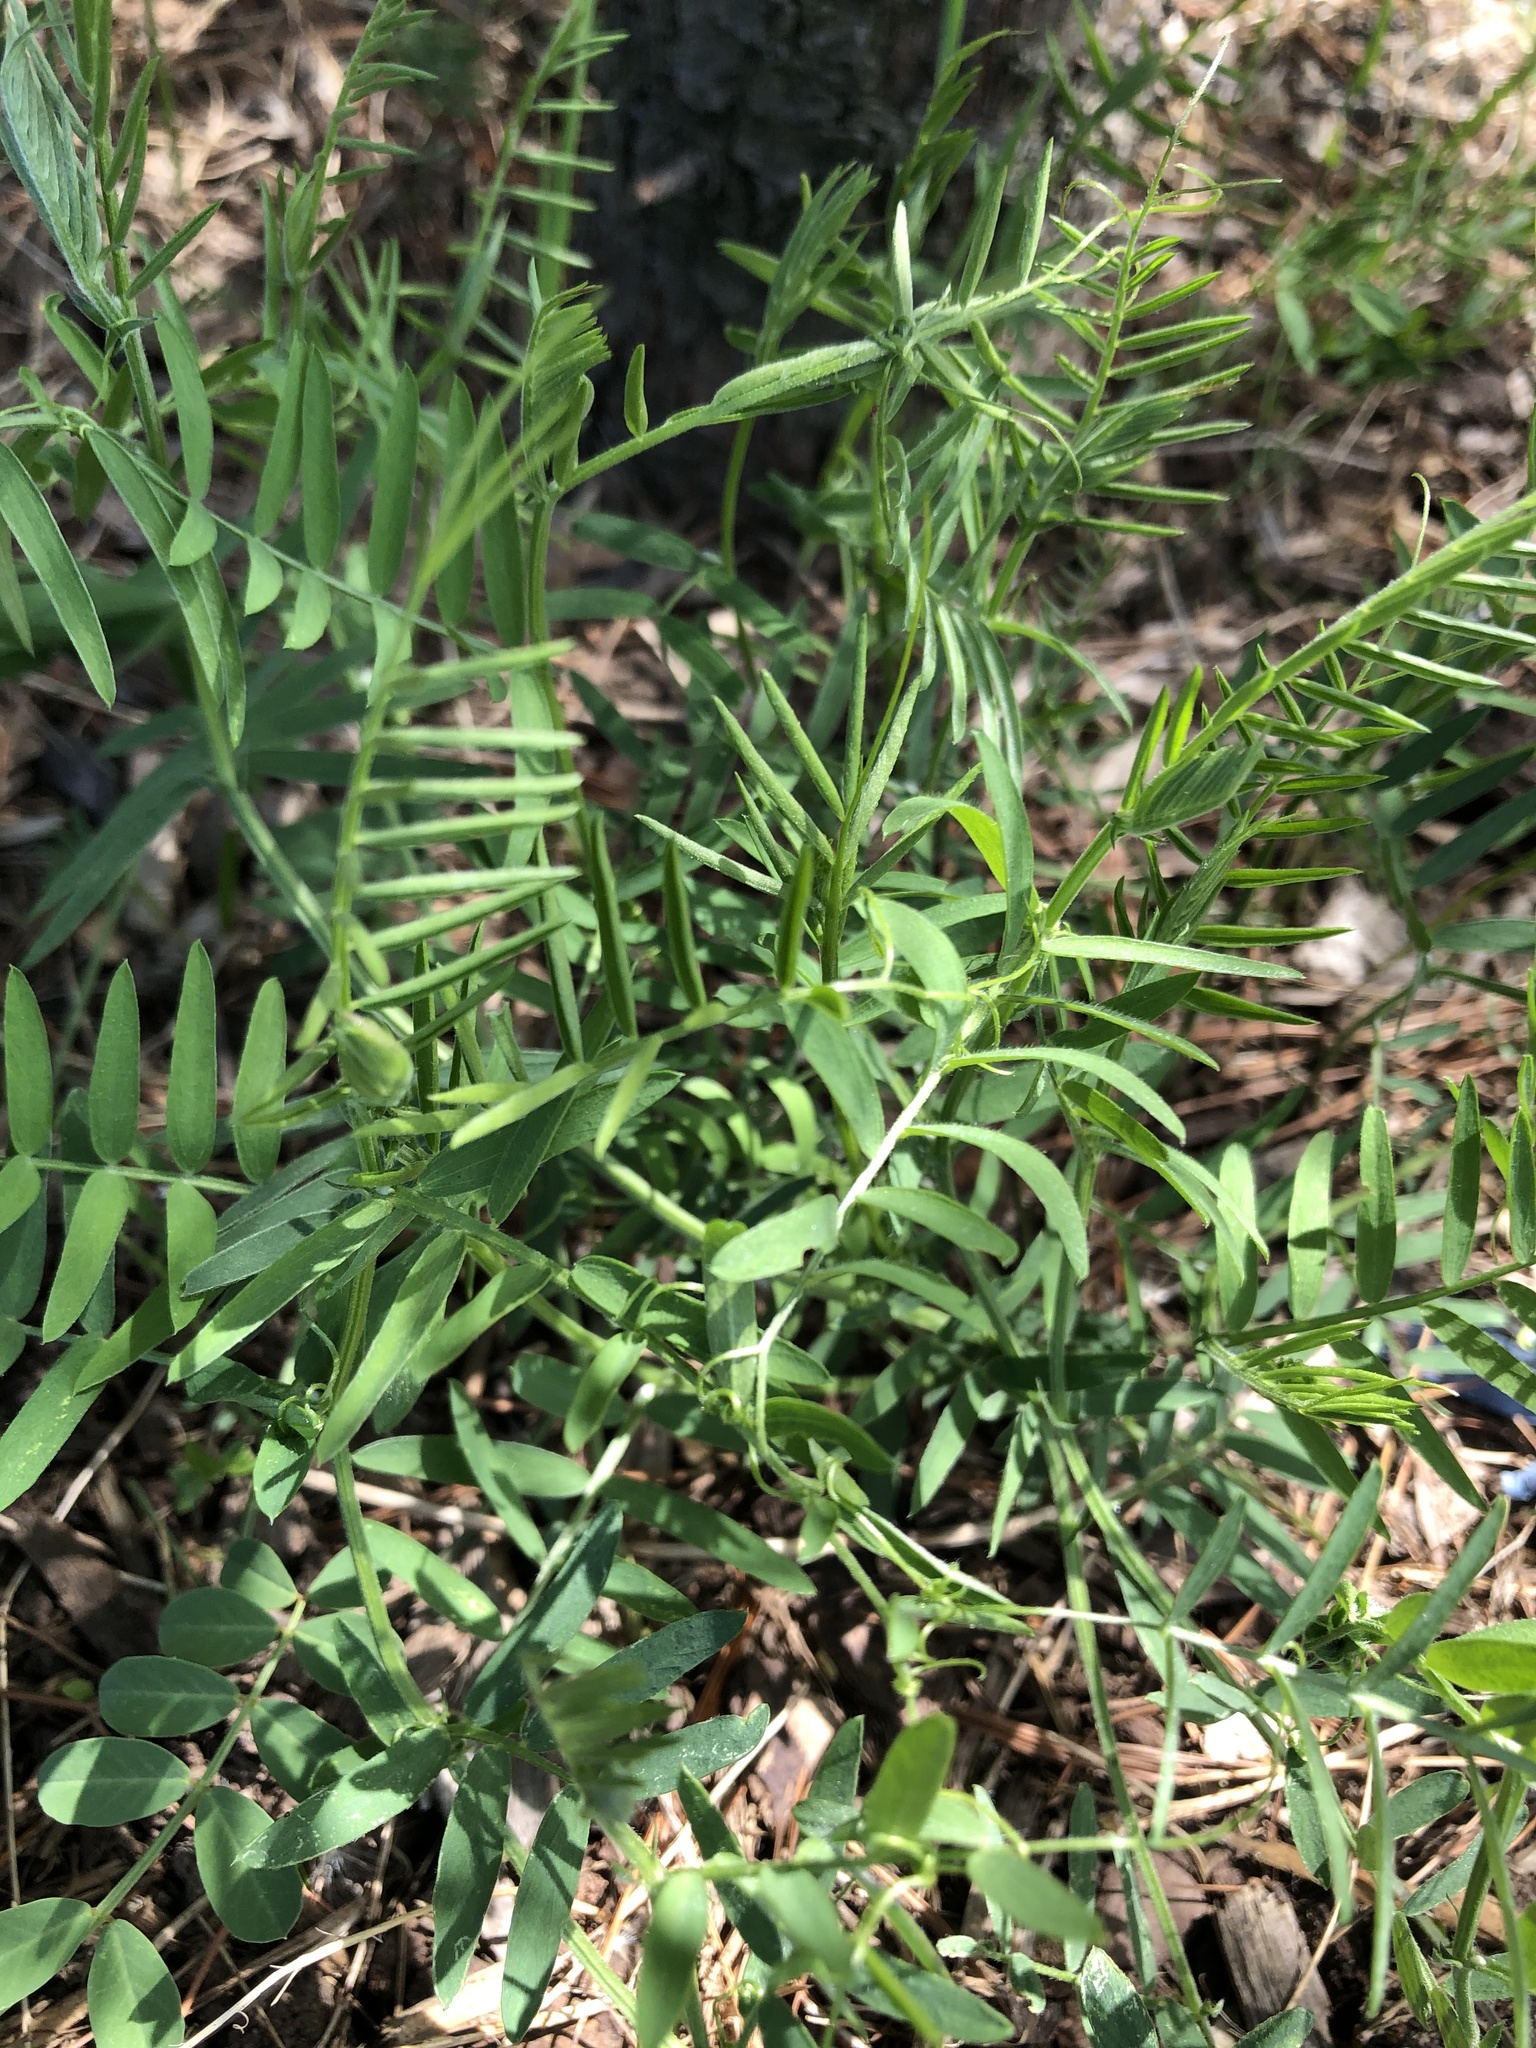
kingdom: Plantae
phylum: Tracheophyta
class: Magnoliopsida
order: Fabales
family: Fabaceae
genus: Vicia
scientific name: Vicia cracca
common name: Bird vetch
